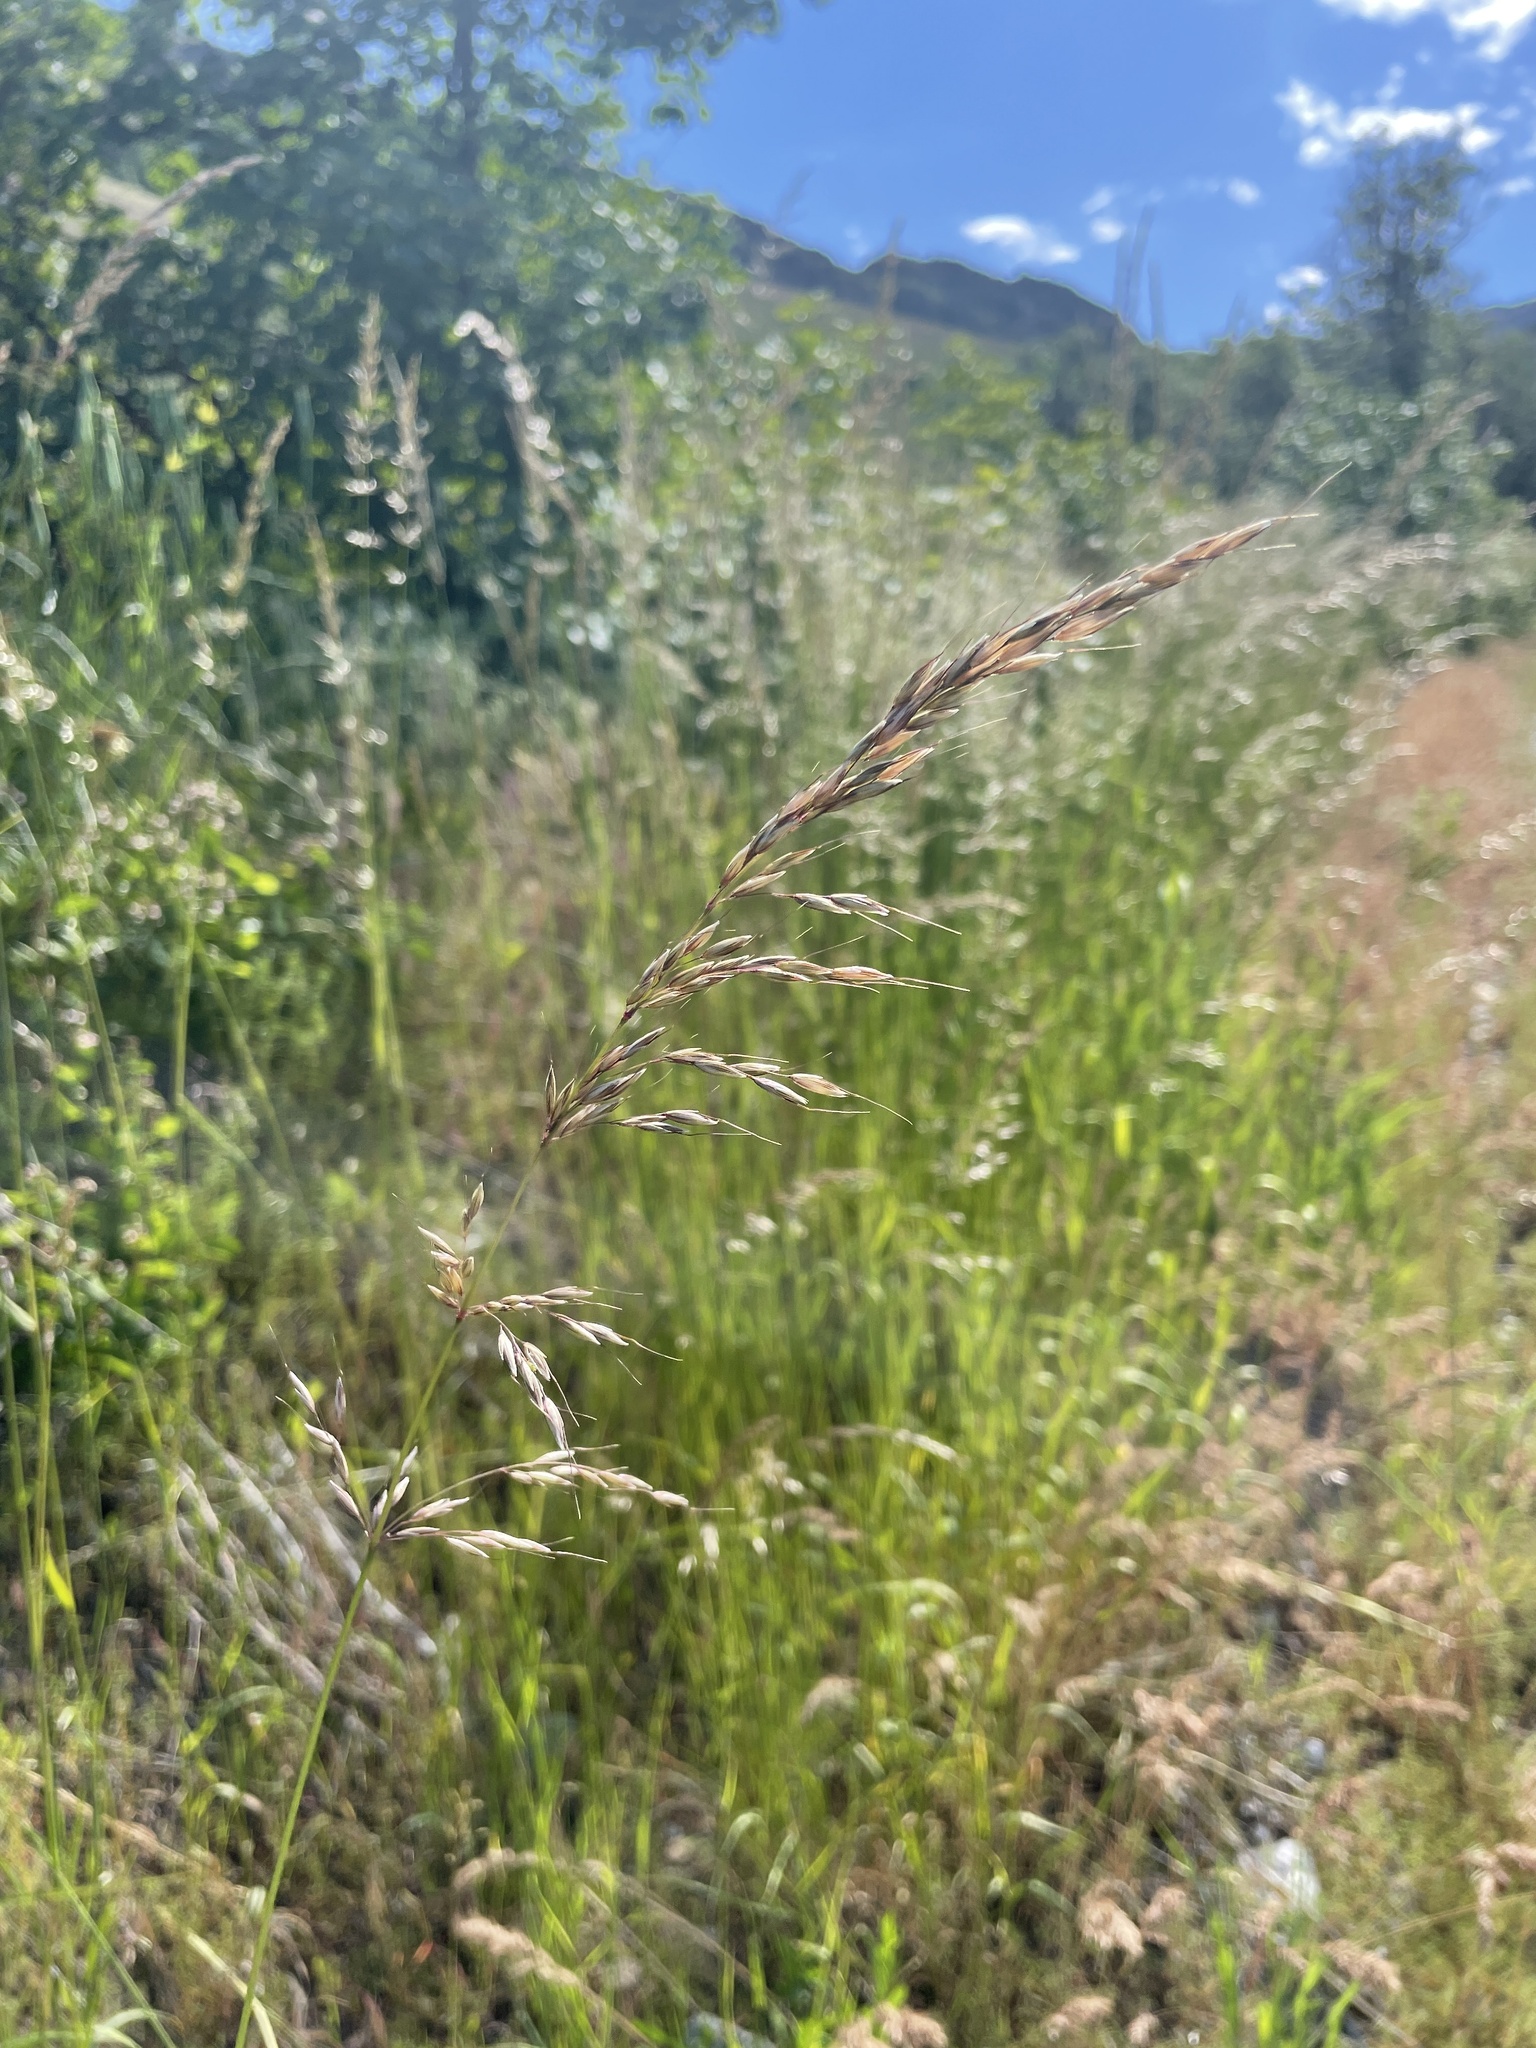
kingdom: Plantae
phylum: Tracheophyta
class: Liliopsida
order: Poales
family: Poaceae
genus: Arrhenatherum
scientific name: Arrhenatherum elatius
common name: Tall oatgrass
